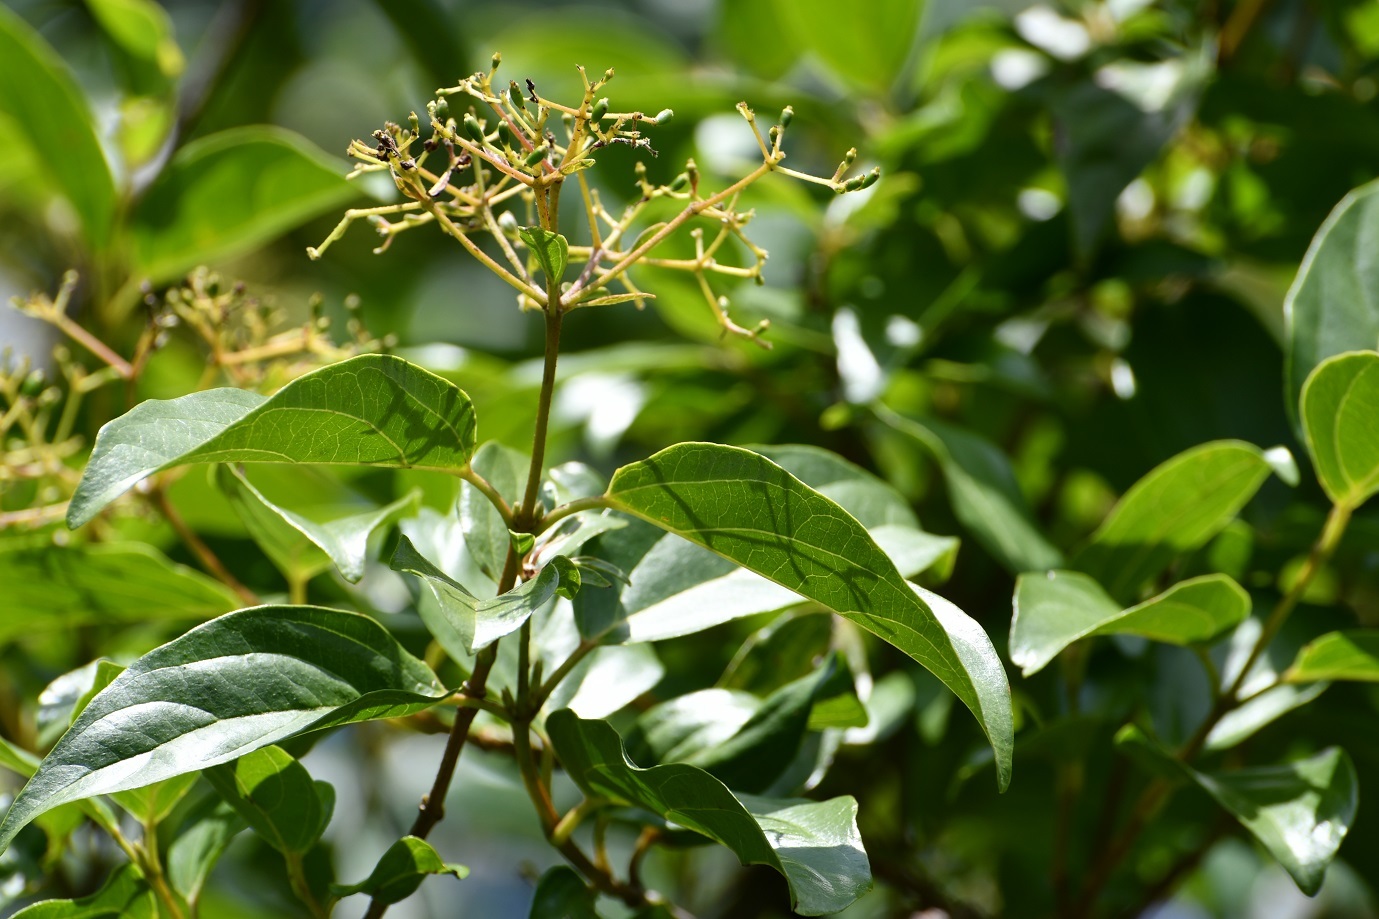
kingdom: Plantae
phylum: Tracheophyta
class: Magnoliopsida
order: Dipsacales
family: Viburnaceae
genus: Viburnum
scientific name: Viburnum hartwegii
